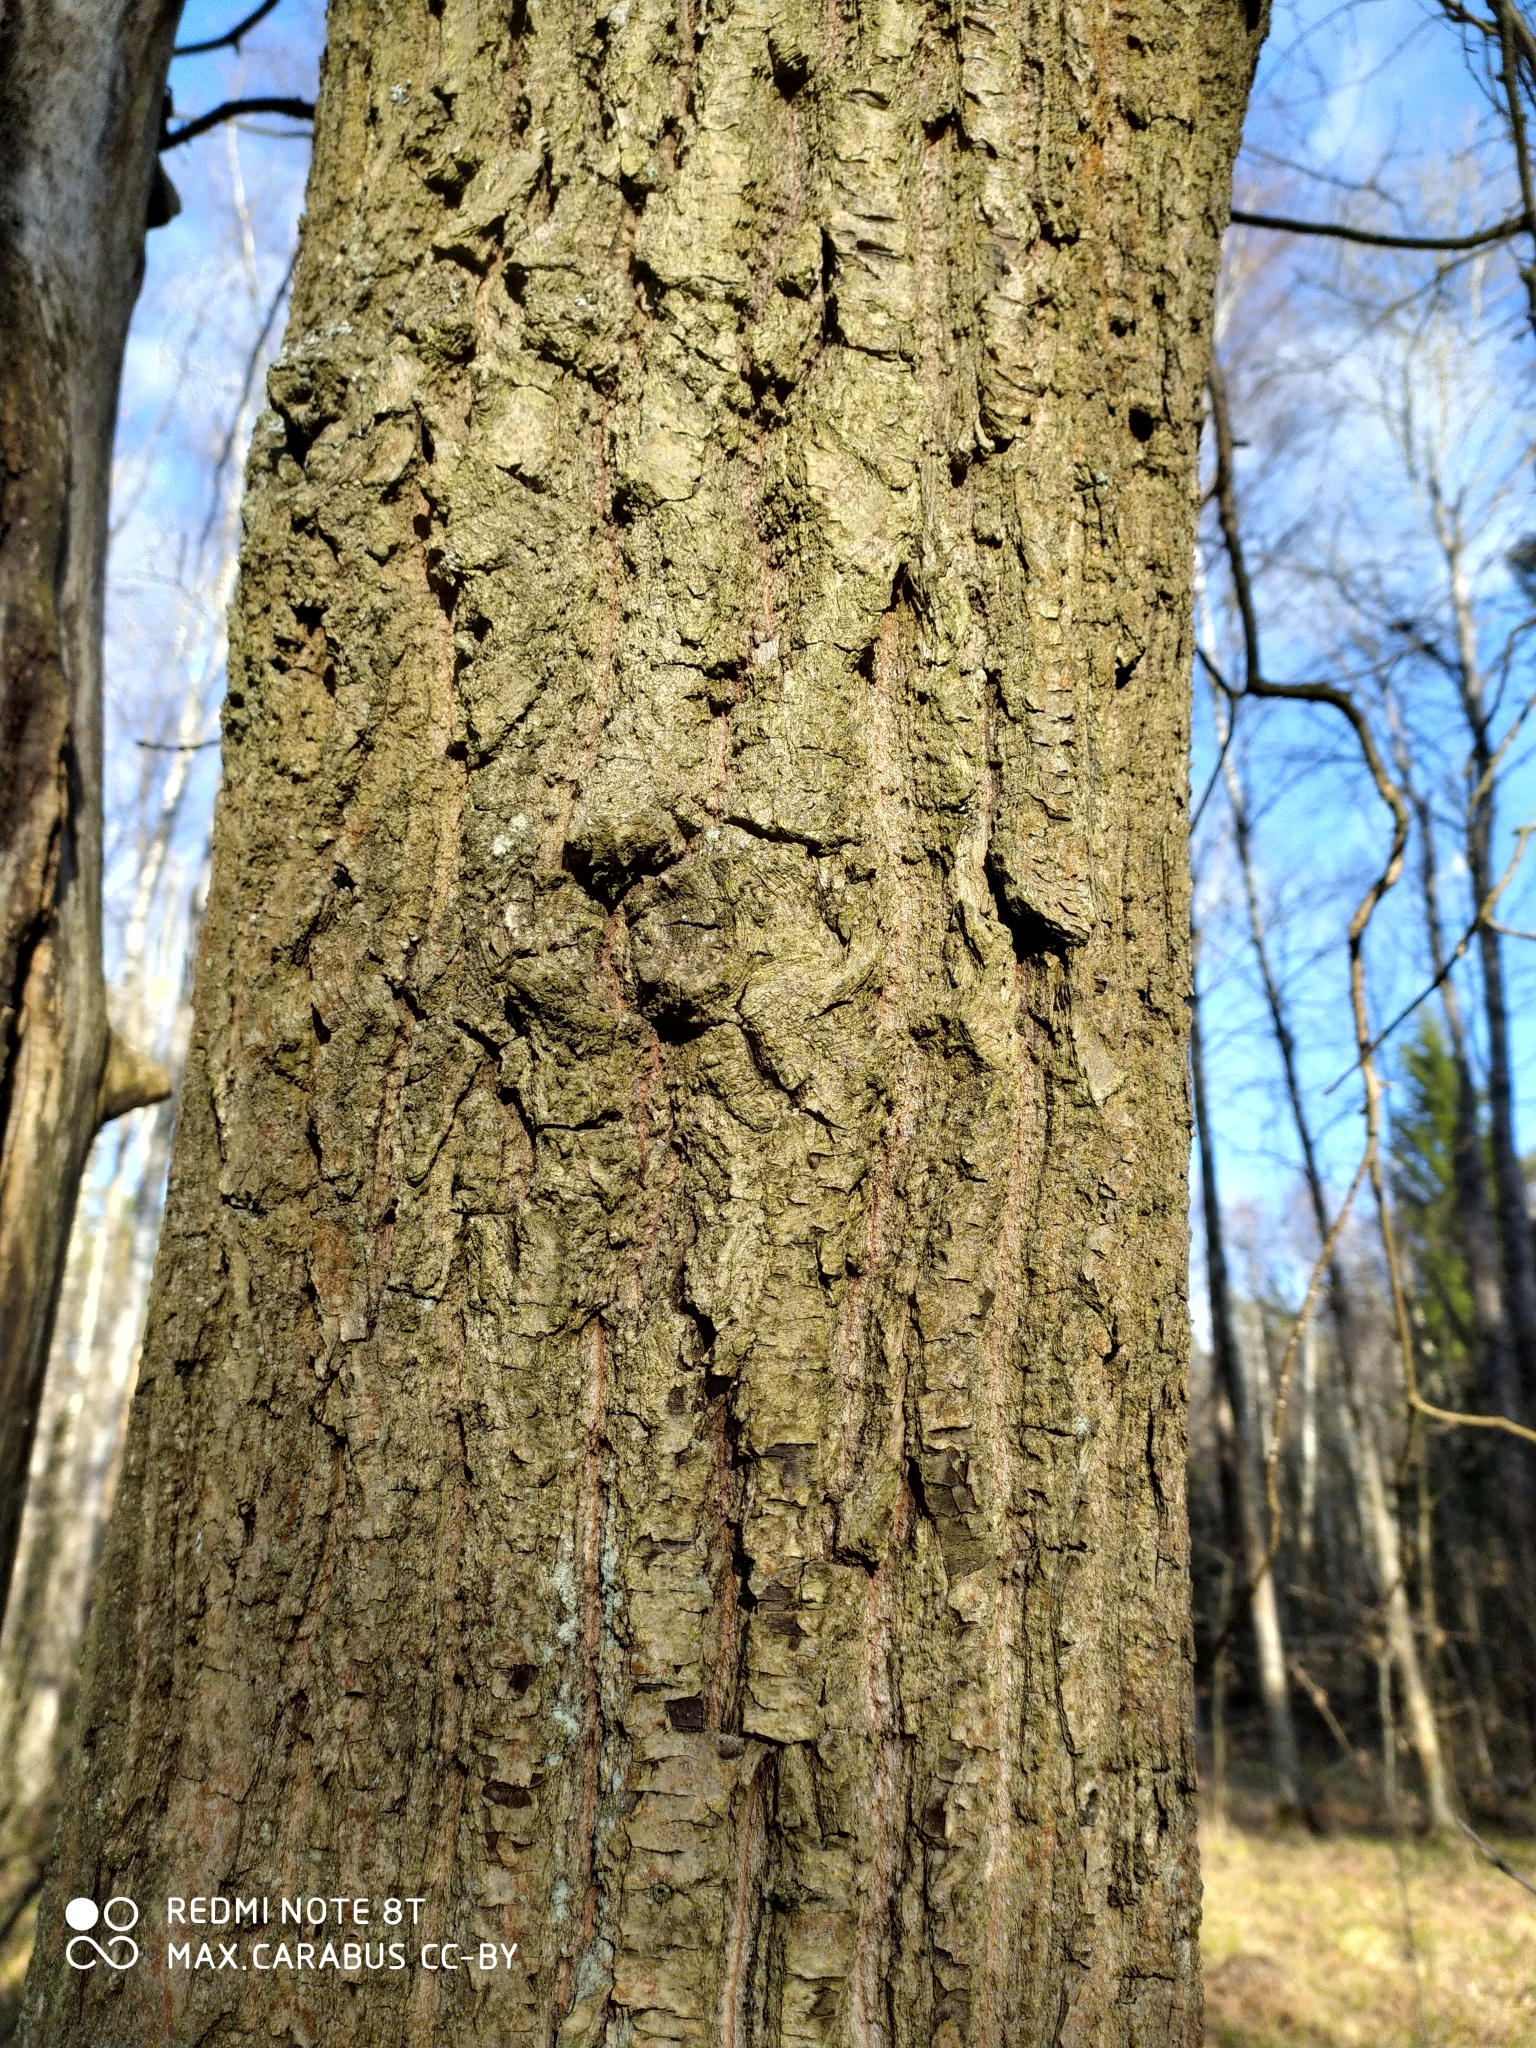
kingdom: Plantae
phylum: Tracheophyta
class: Magnoliopsida
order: Fagales
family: Fagaceae
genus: Quercus
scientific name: Quercus robur
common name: Pedunculate oak
